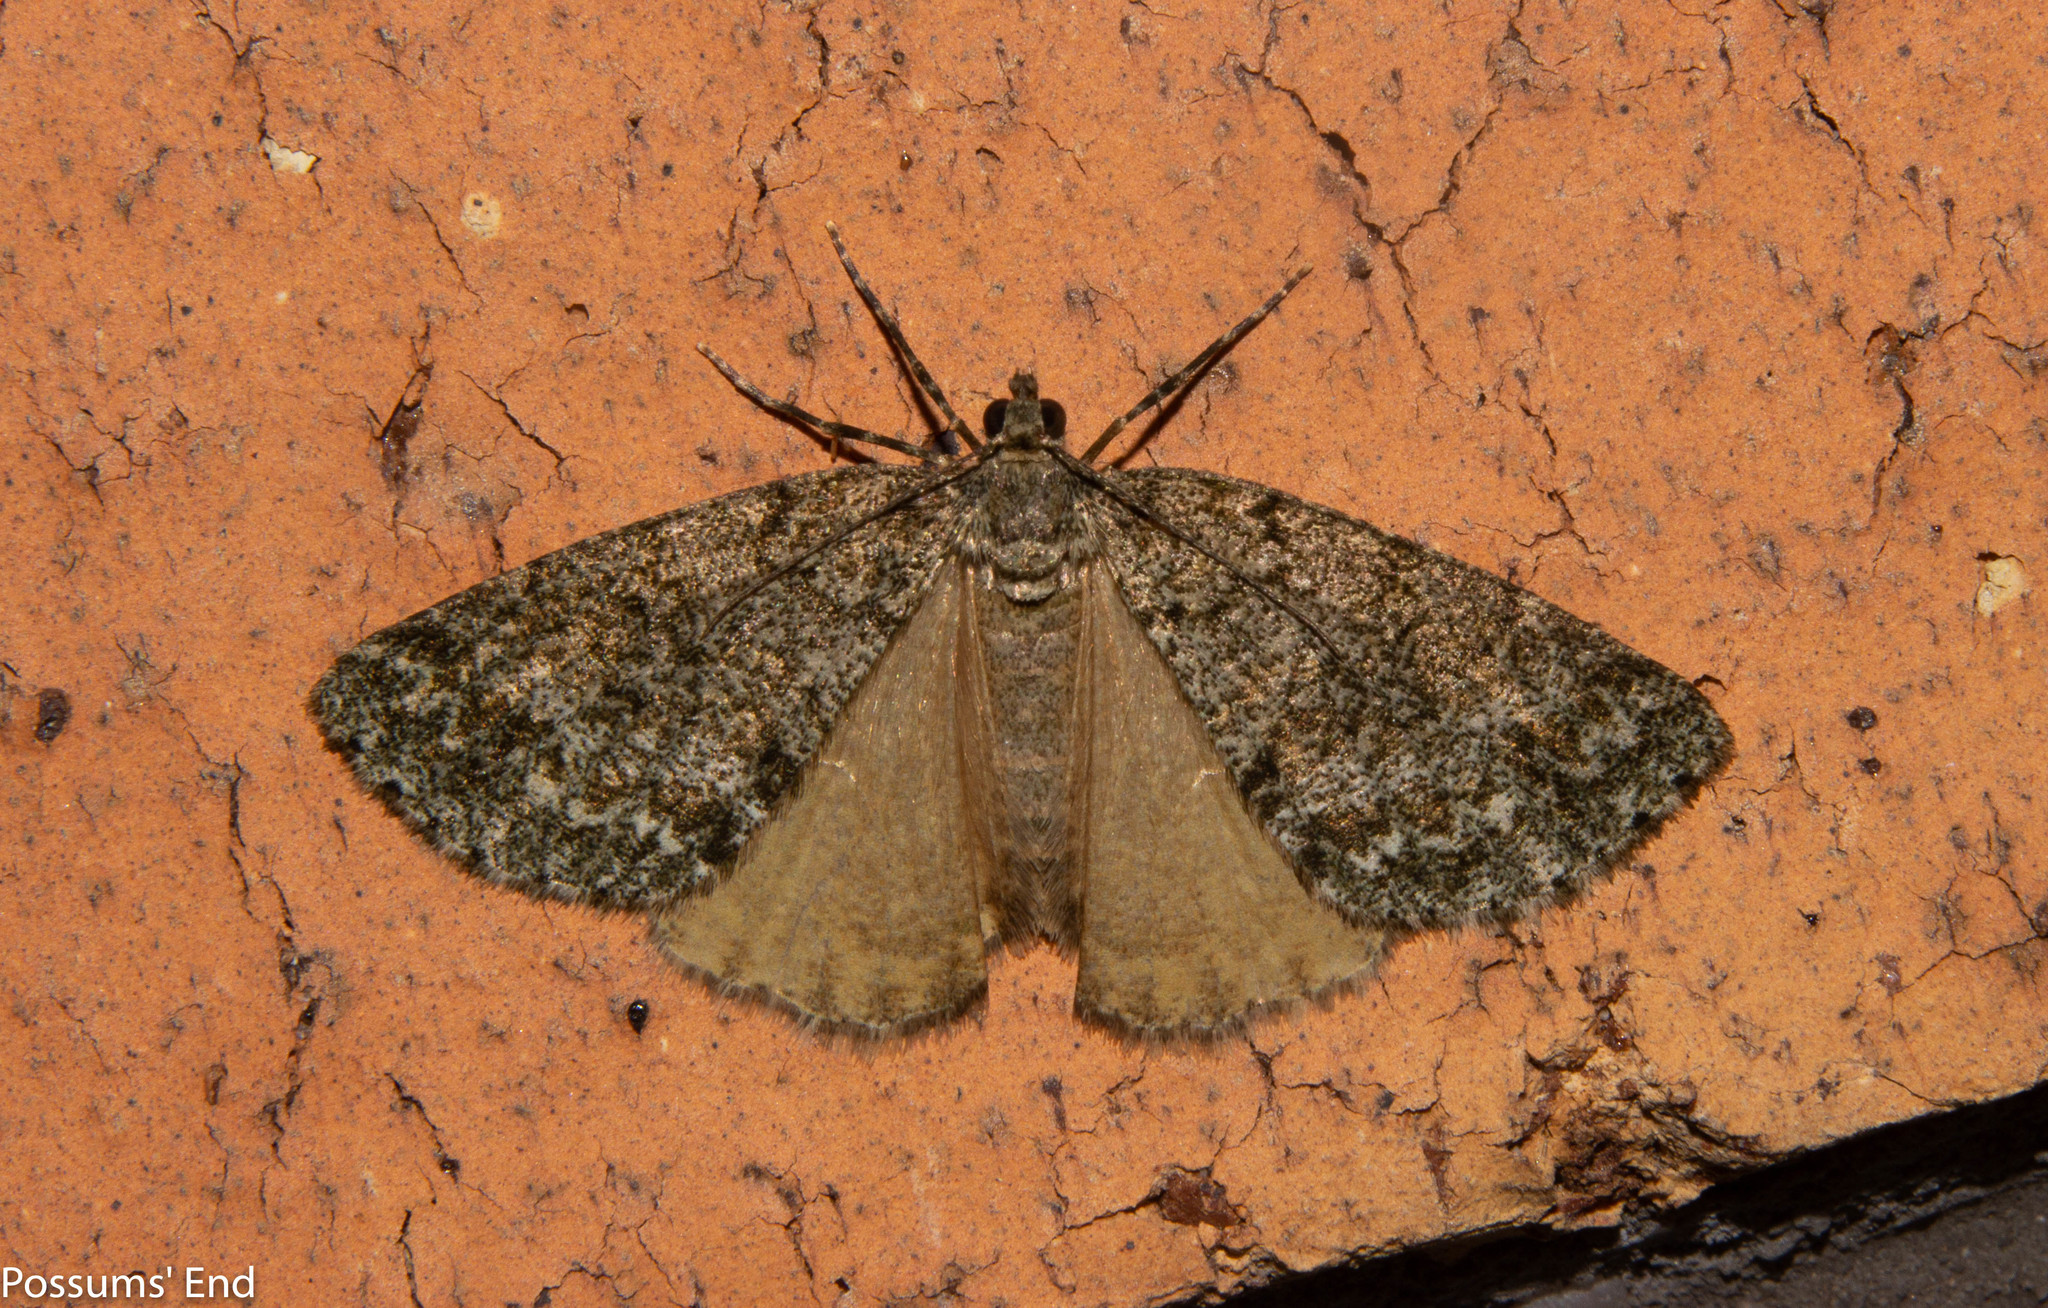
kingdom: Animalia
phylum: Arthropoda
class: Insecta
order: Lepidoptera
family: Geometridae
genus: Pseudocoremia
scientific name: Pseudocoremia indistincta
